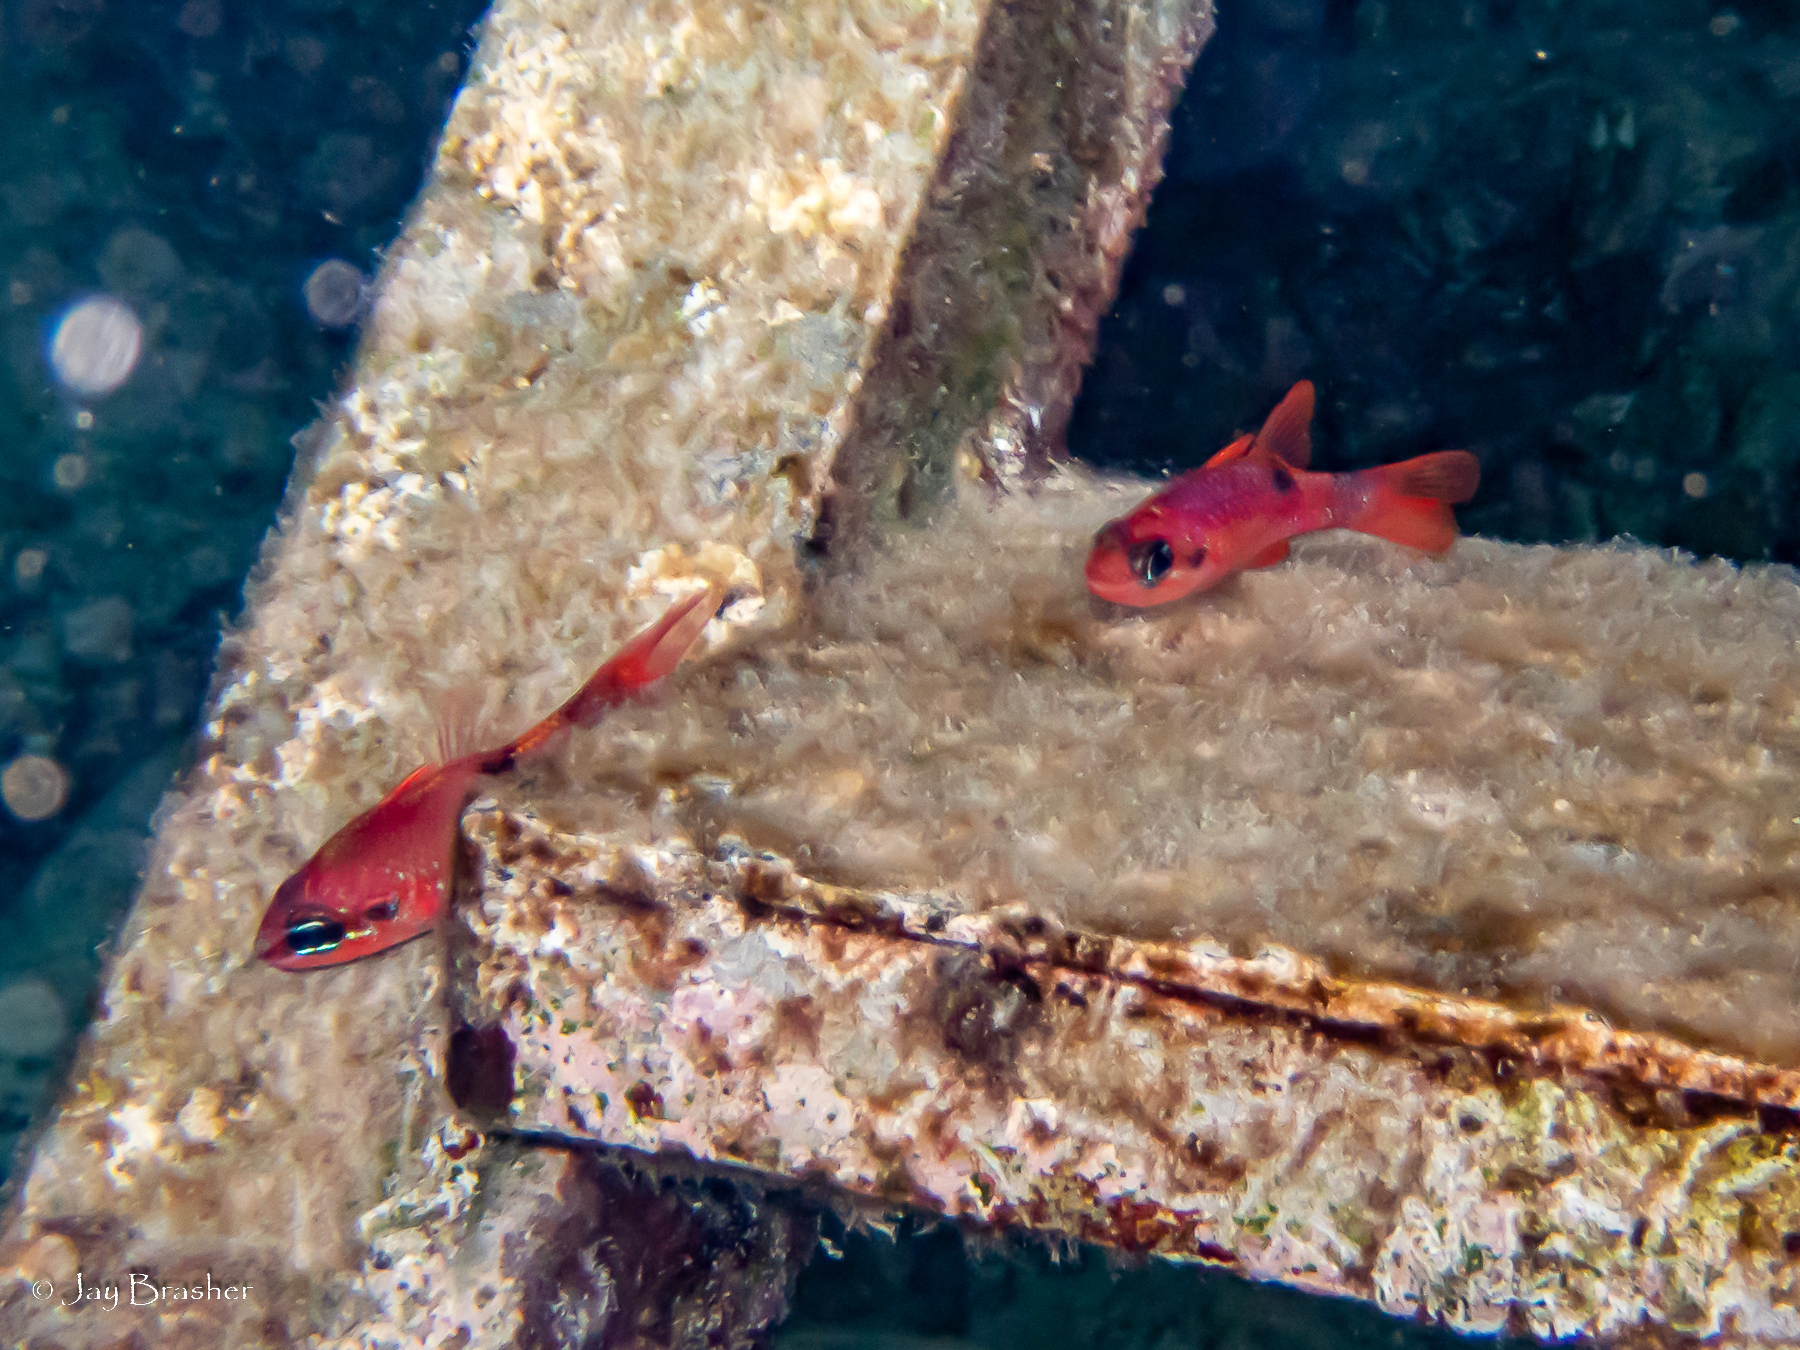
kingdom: Animalia
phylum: Chordata
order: Perciformes
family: Apogonidae
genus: Apogon
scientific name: Apogon maculatus
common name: Flamefish
